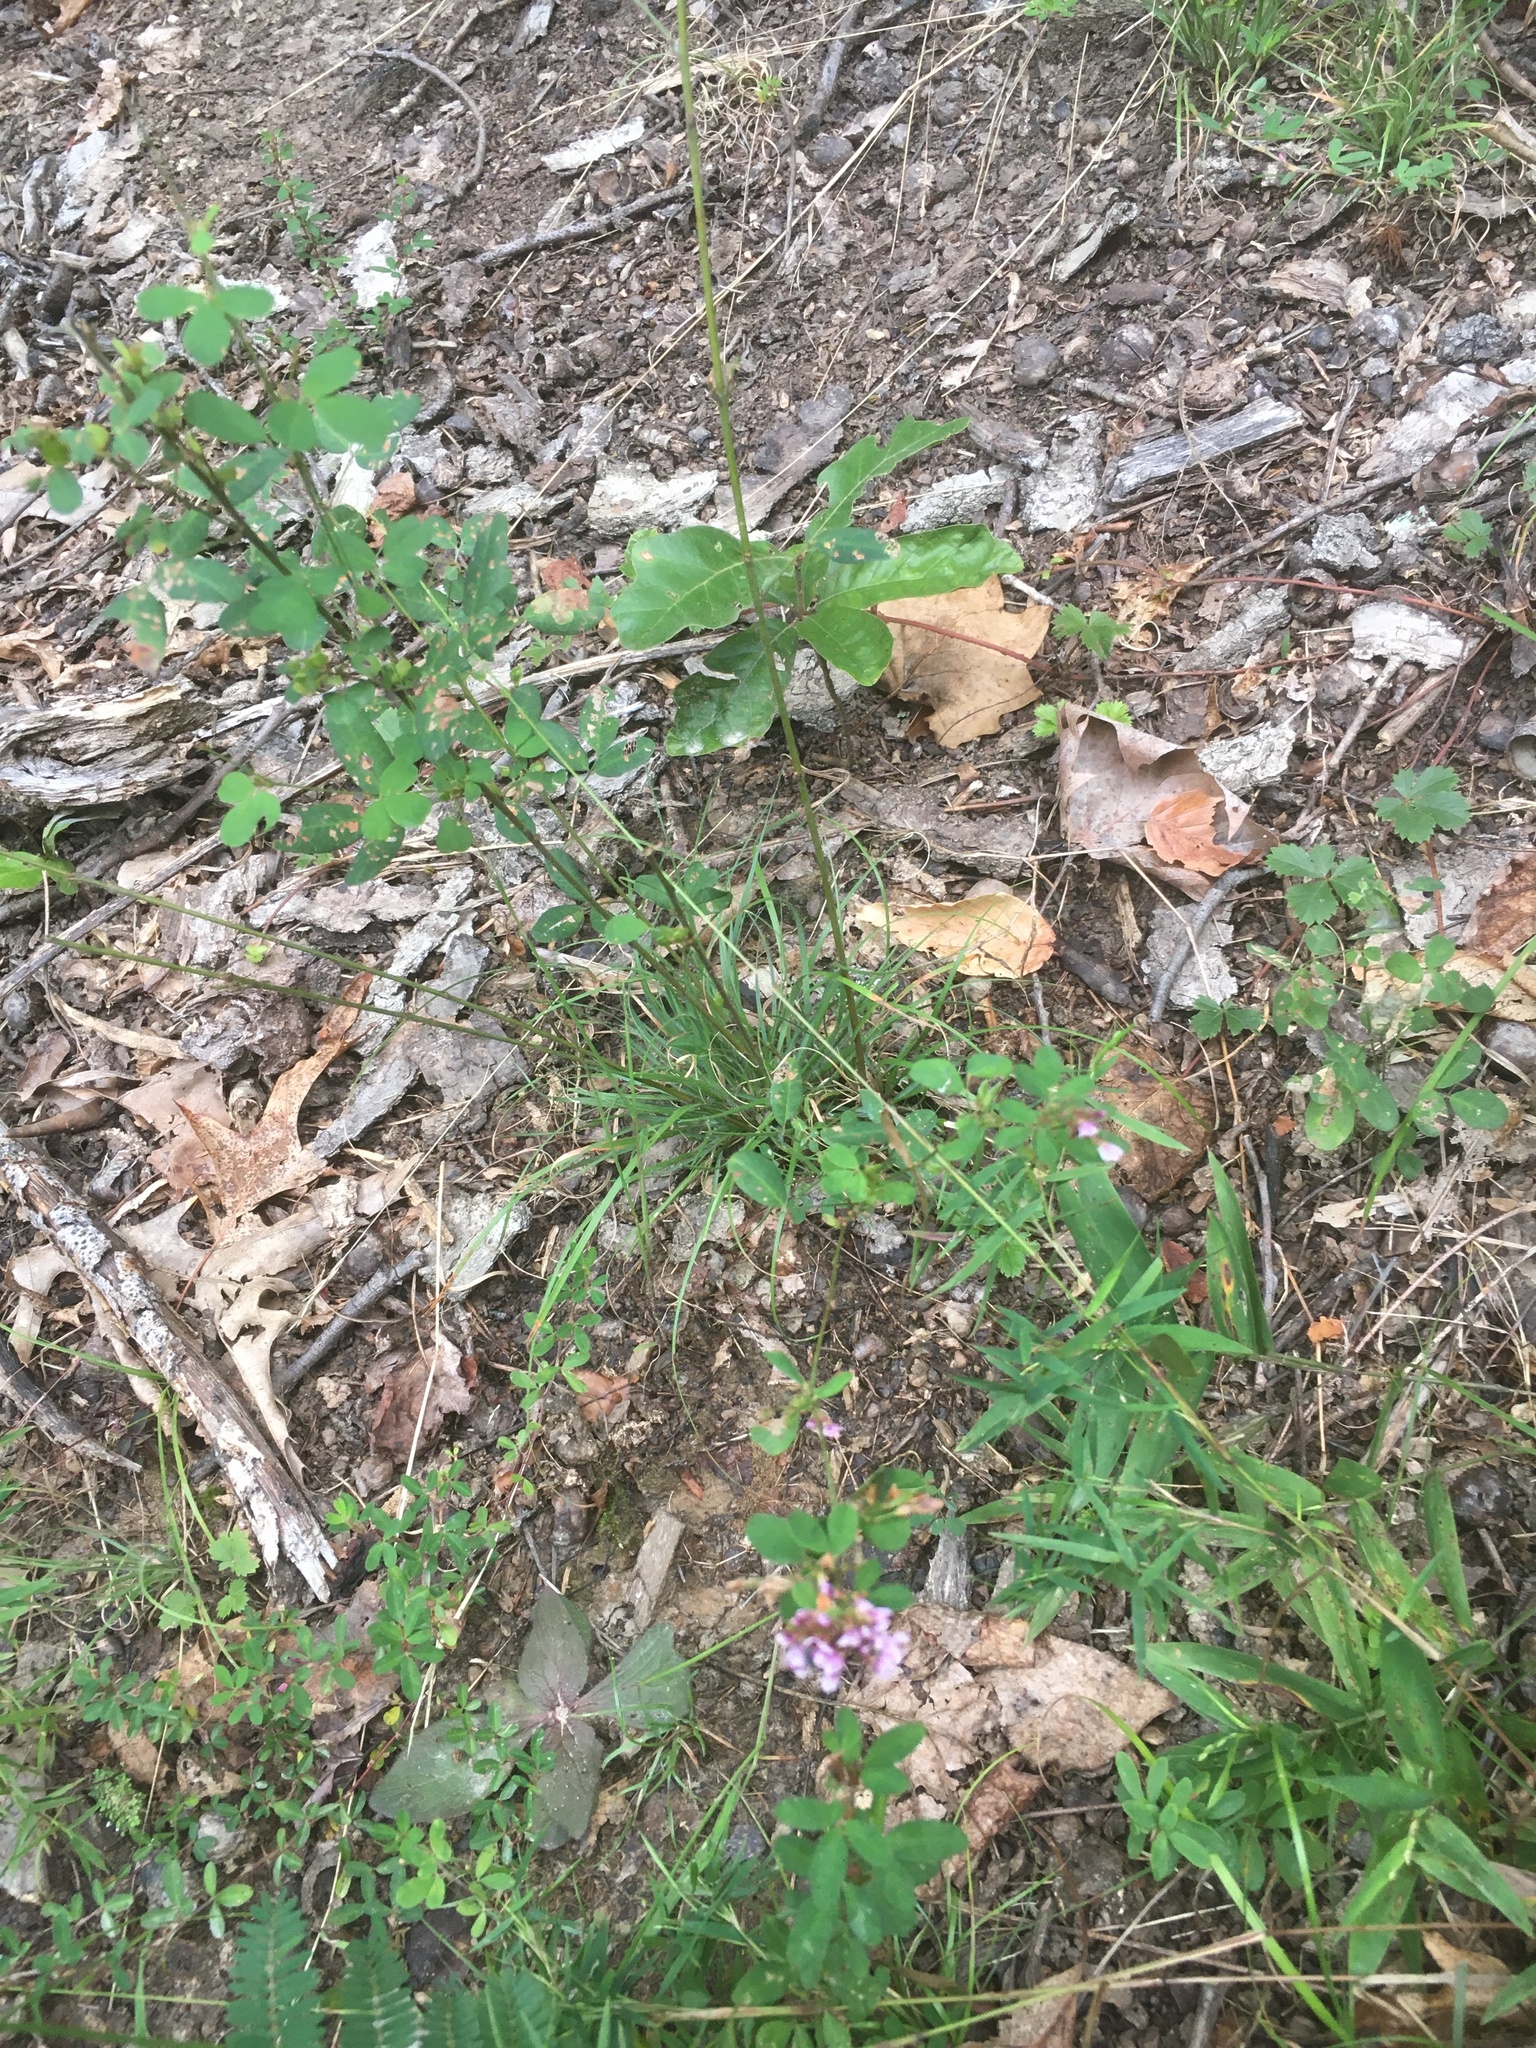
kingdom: Plantae
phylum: Tracheophyta
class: Magnoliopsida
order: Fabales
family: Fabaceae
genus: Lespedeza
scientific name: Lespedeza violacea
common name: Wand bush-clover
